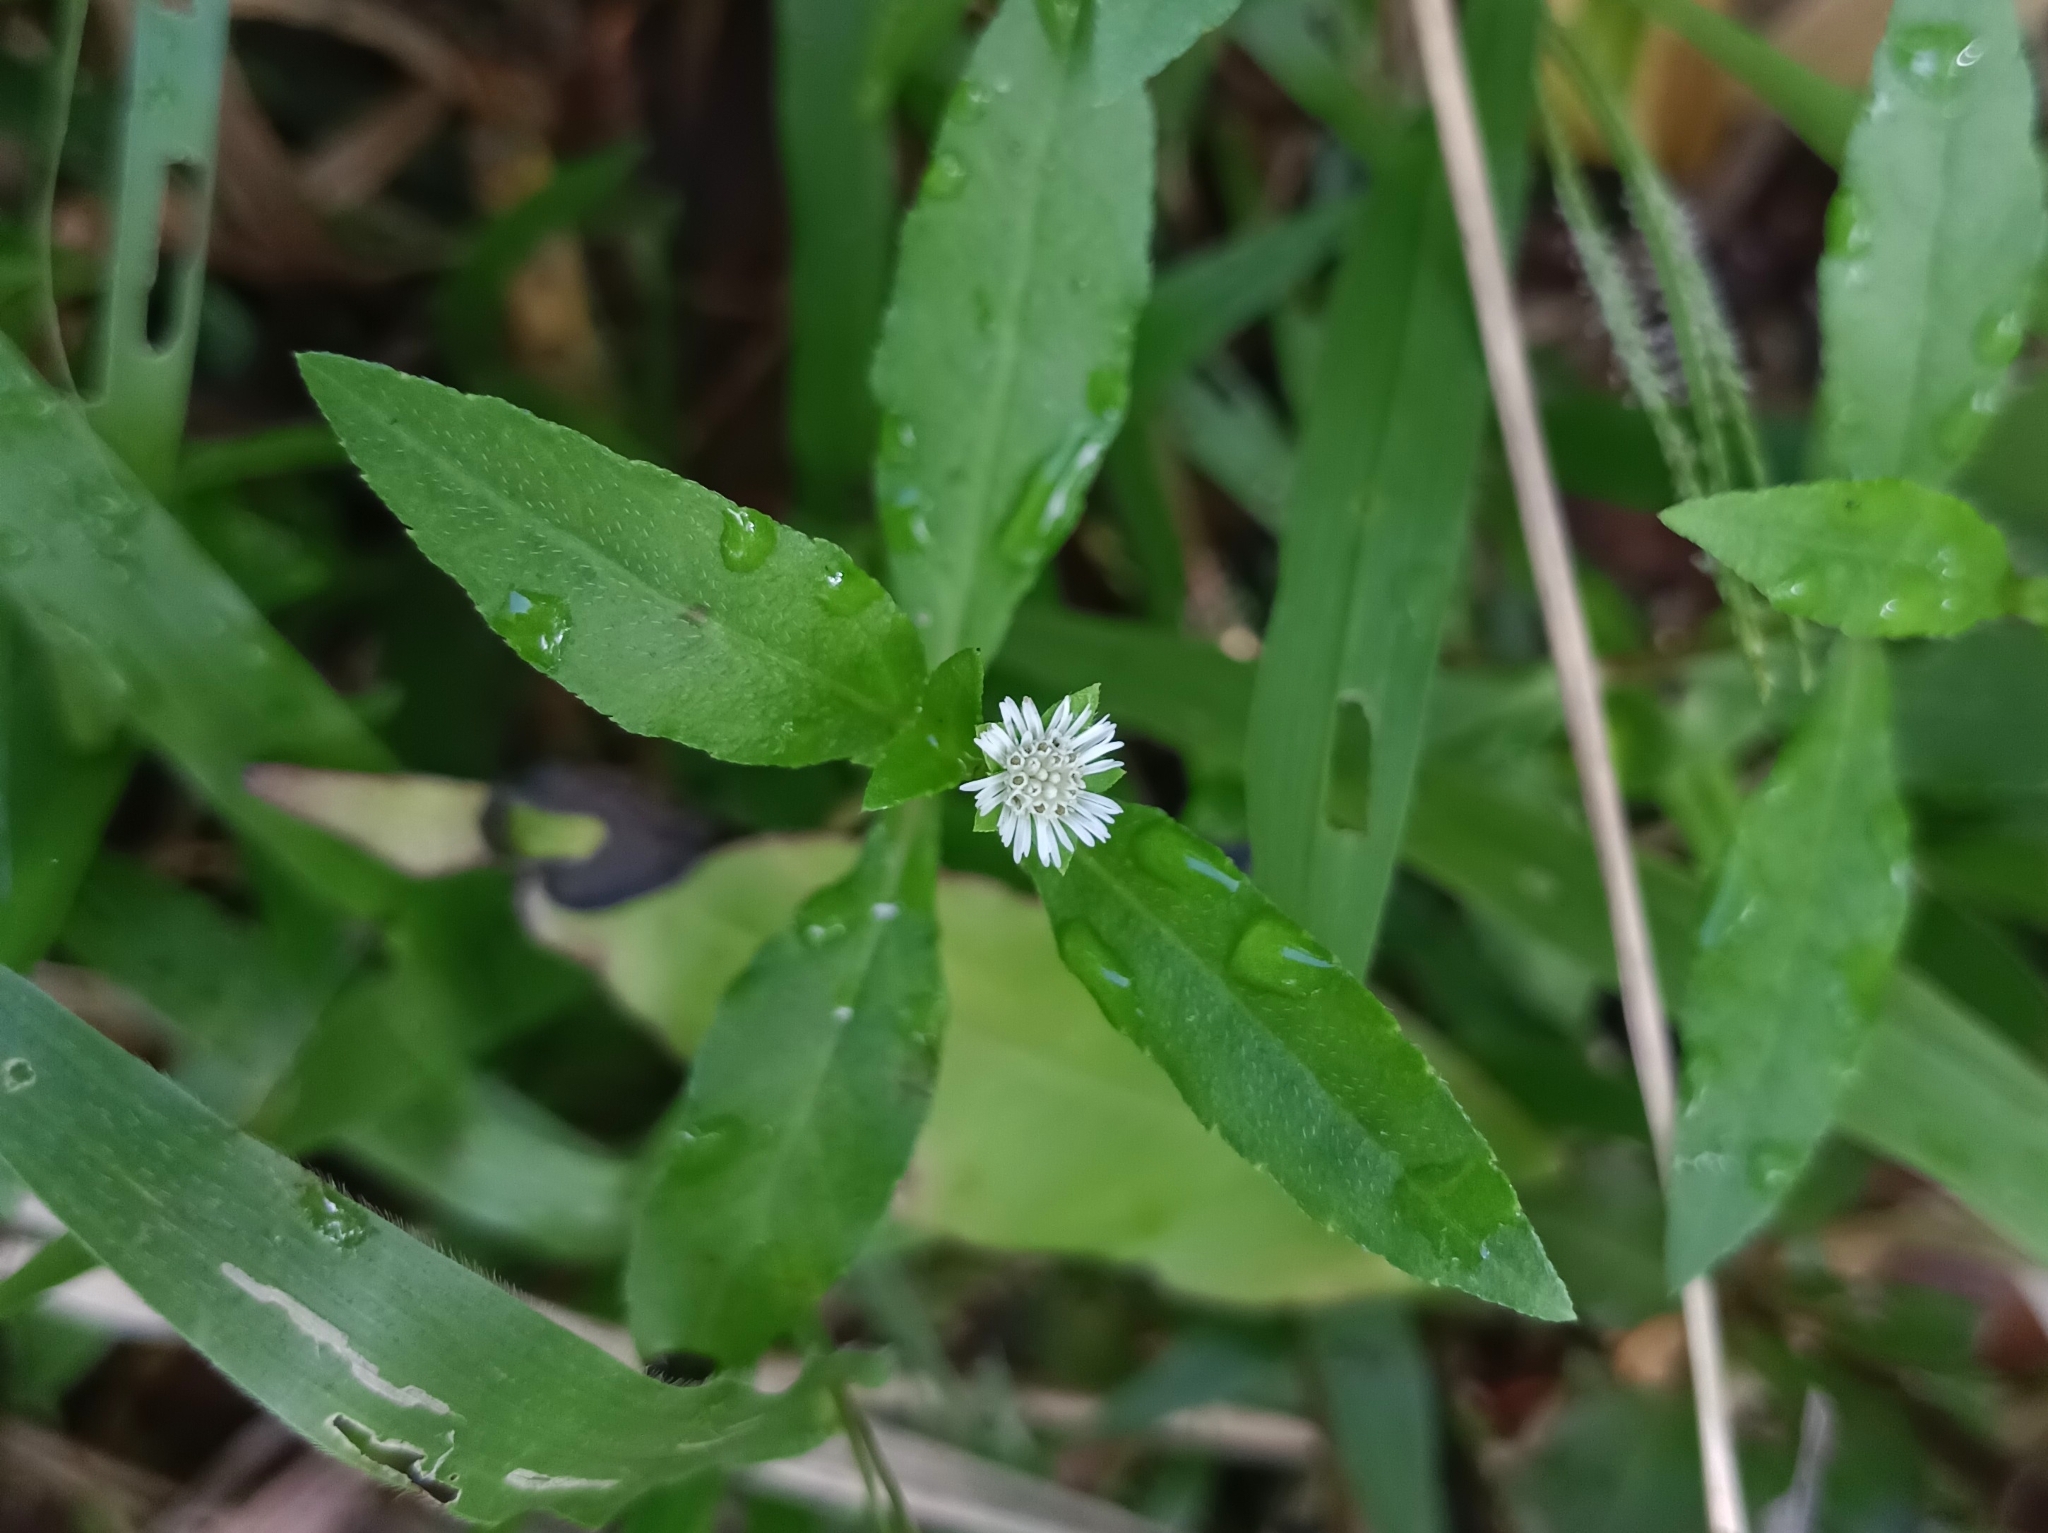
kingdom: Plantae
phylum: Tracheophyta
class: Magnoliopsida
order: Asterales
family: Asteraceae
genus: Eclipta
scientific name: Eclipta prostrata
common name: False daisy
